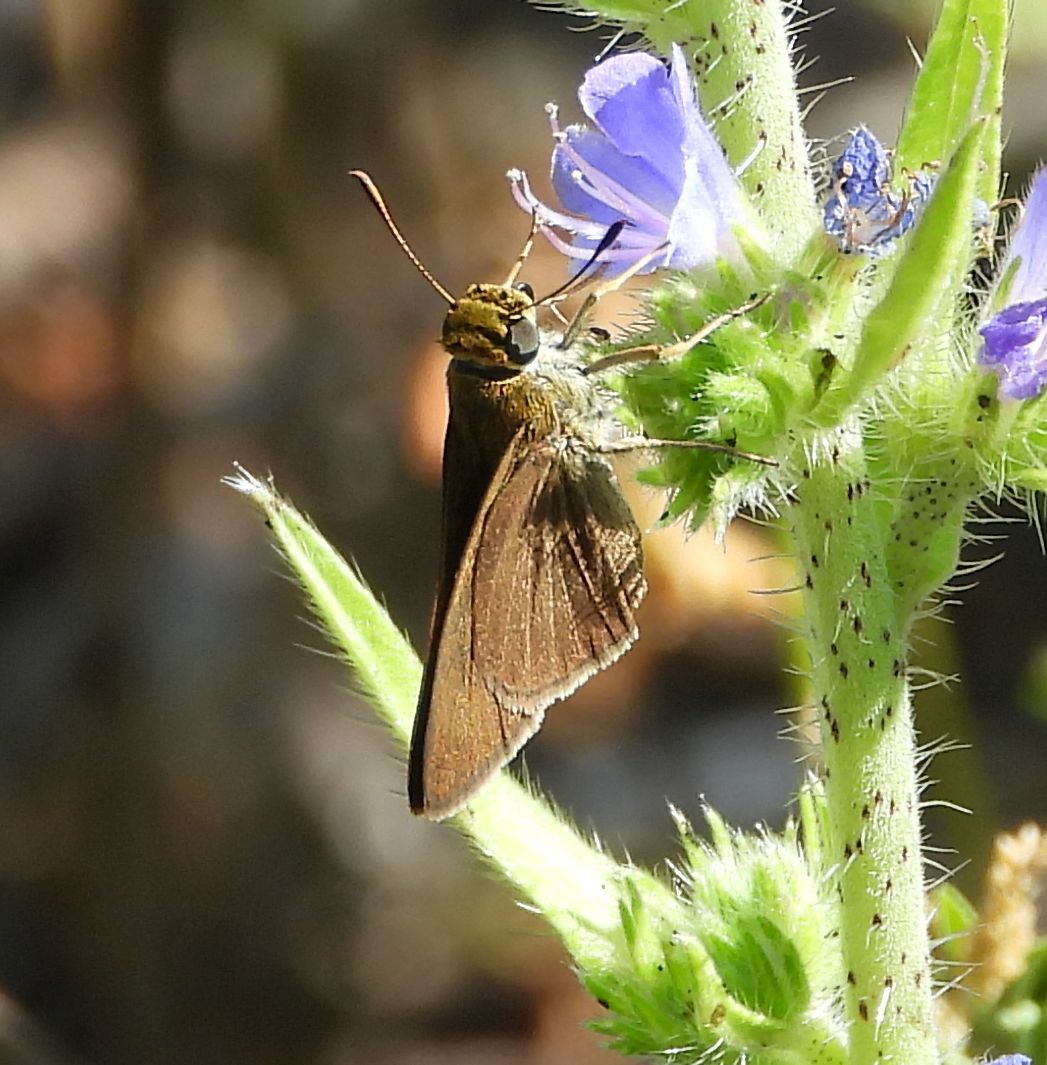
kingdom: Animalia
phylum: Arthropoda
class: Insecta
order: Lepidoptera
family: Hesperiidae
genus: Euphyes
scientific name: Euphyes vestris
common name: Dun skipper
